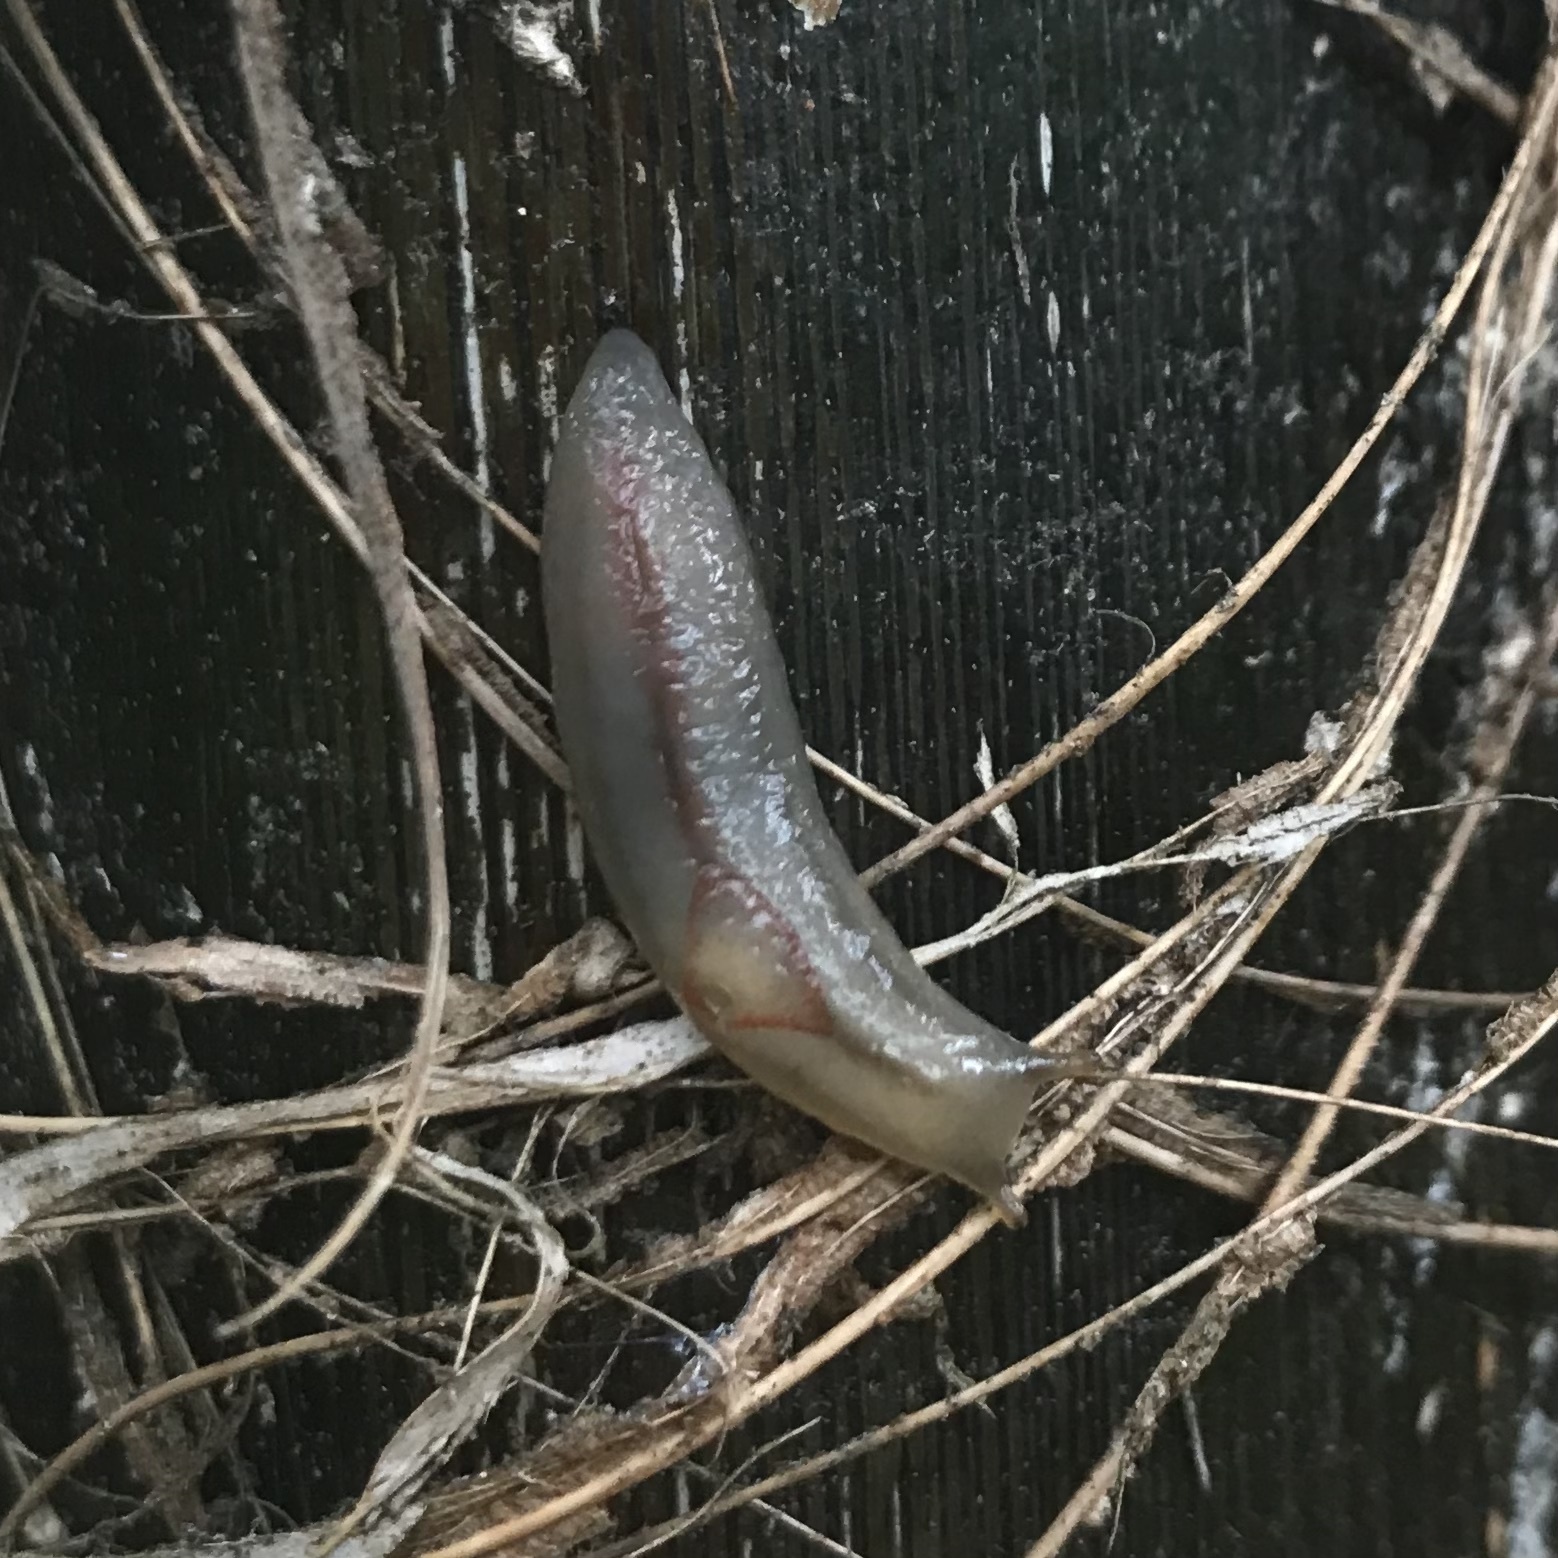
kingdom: Animalia
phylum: Mollusca
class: Gastropoda
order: Stylommatophora
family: Athoracophoridae
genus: Triboniophorus
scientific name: Triboniophorus graeffei
